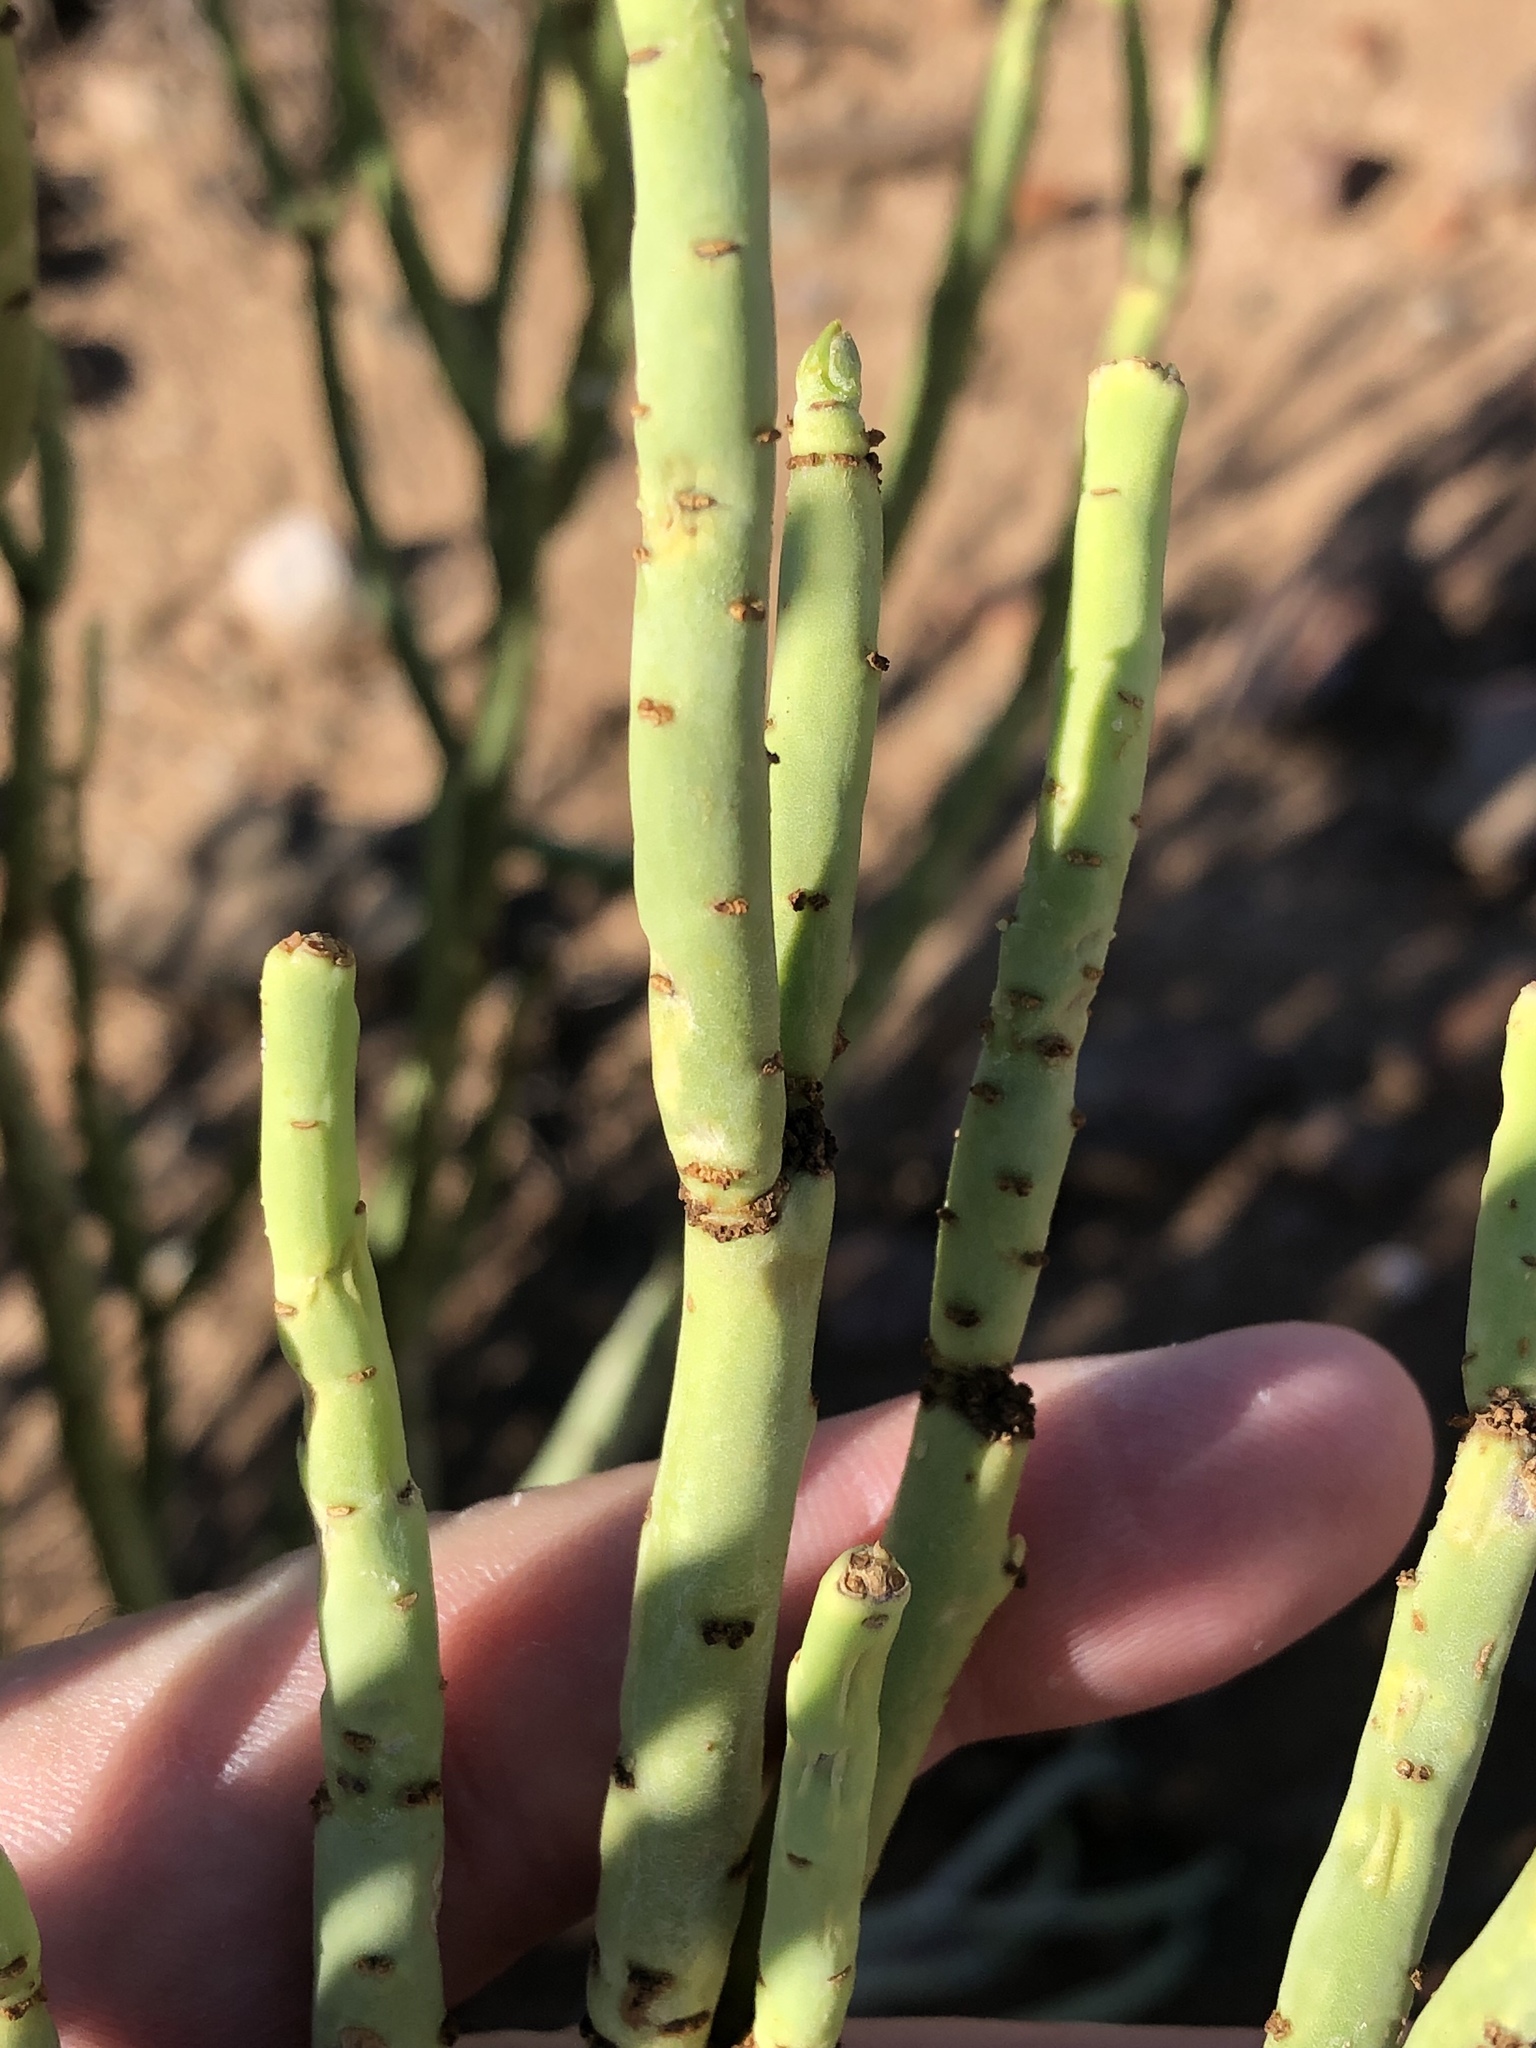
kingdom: Plantae
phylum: Tracheophyta
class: Magnoliopsida
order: Malpighiales
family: Euphorbiaceae
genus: Euphorbia
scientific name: Euphorbia mauritanica
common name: Jackal's-food
